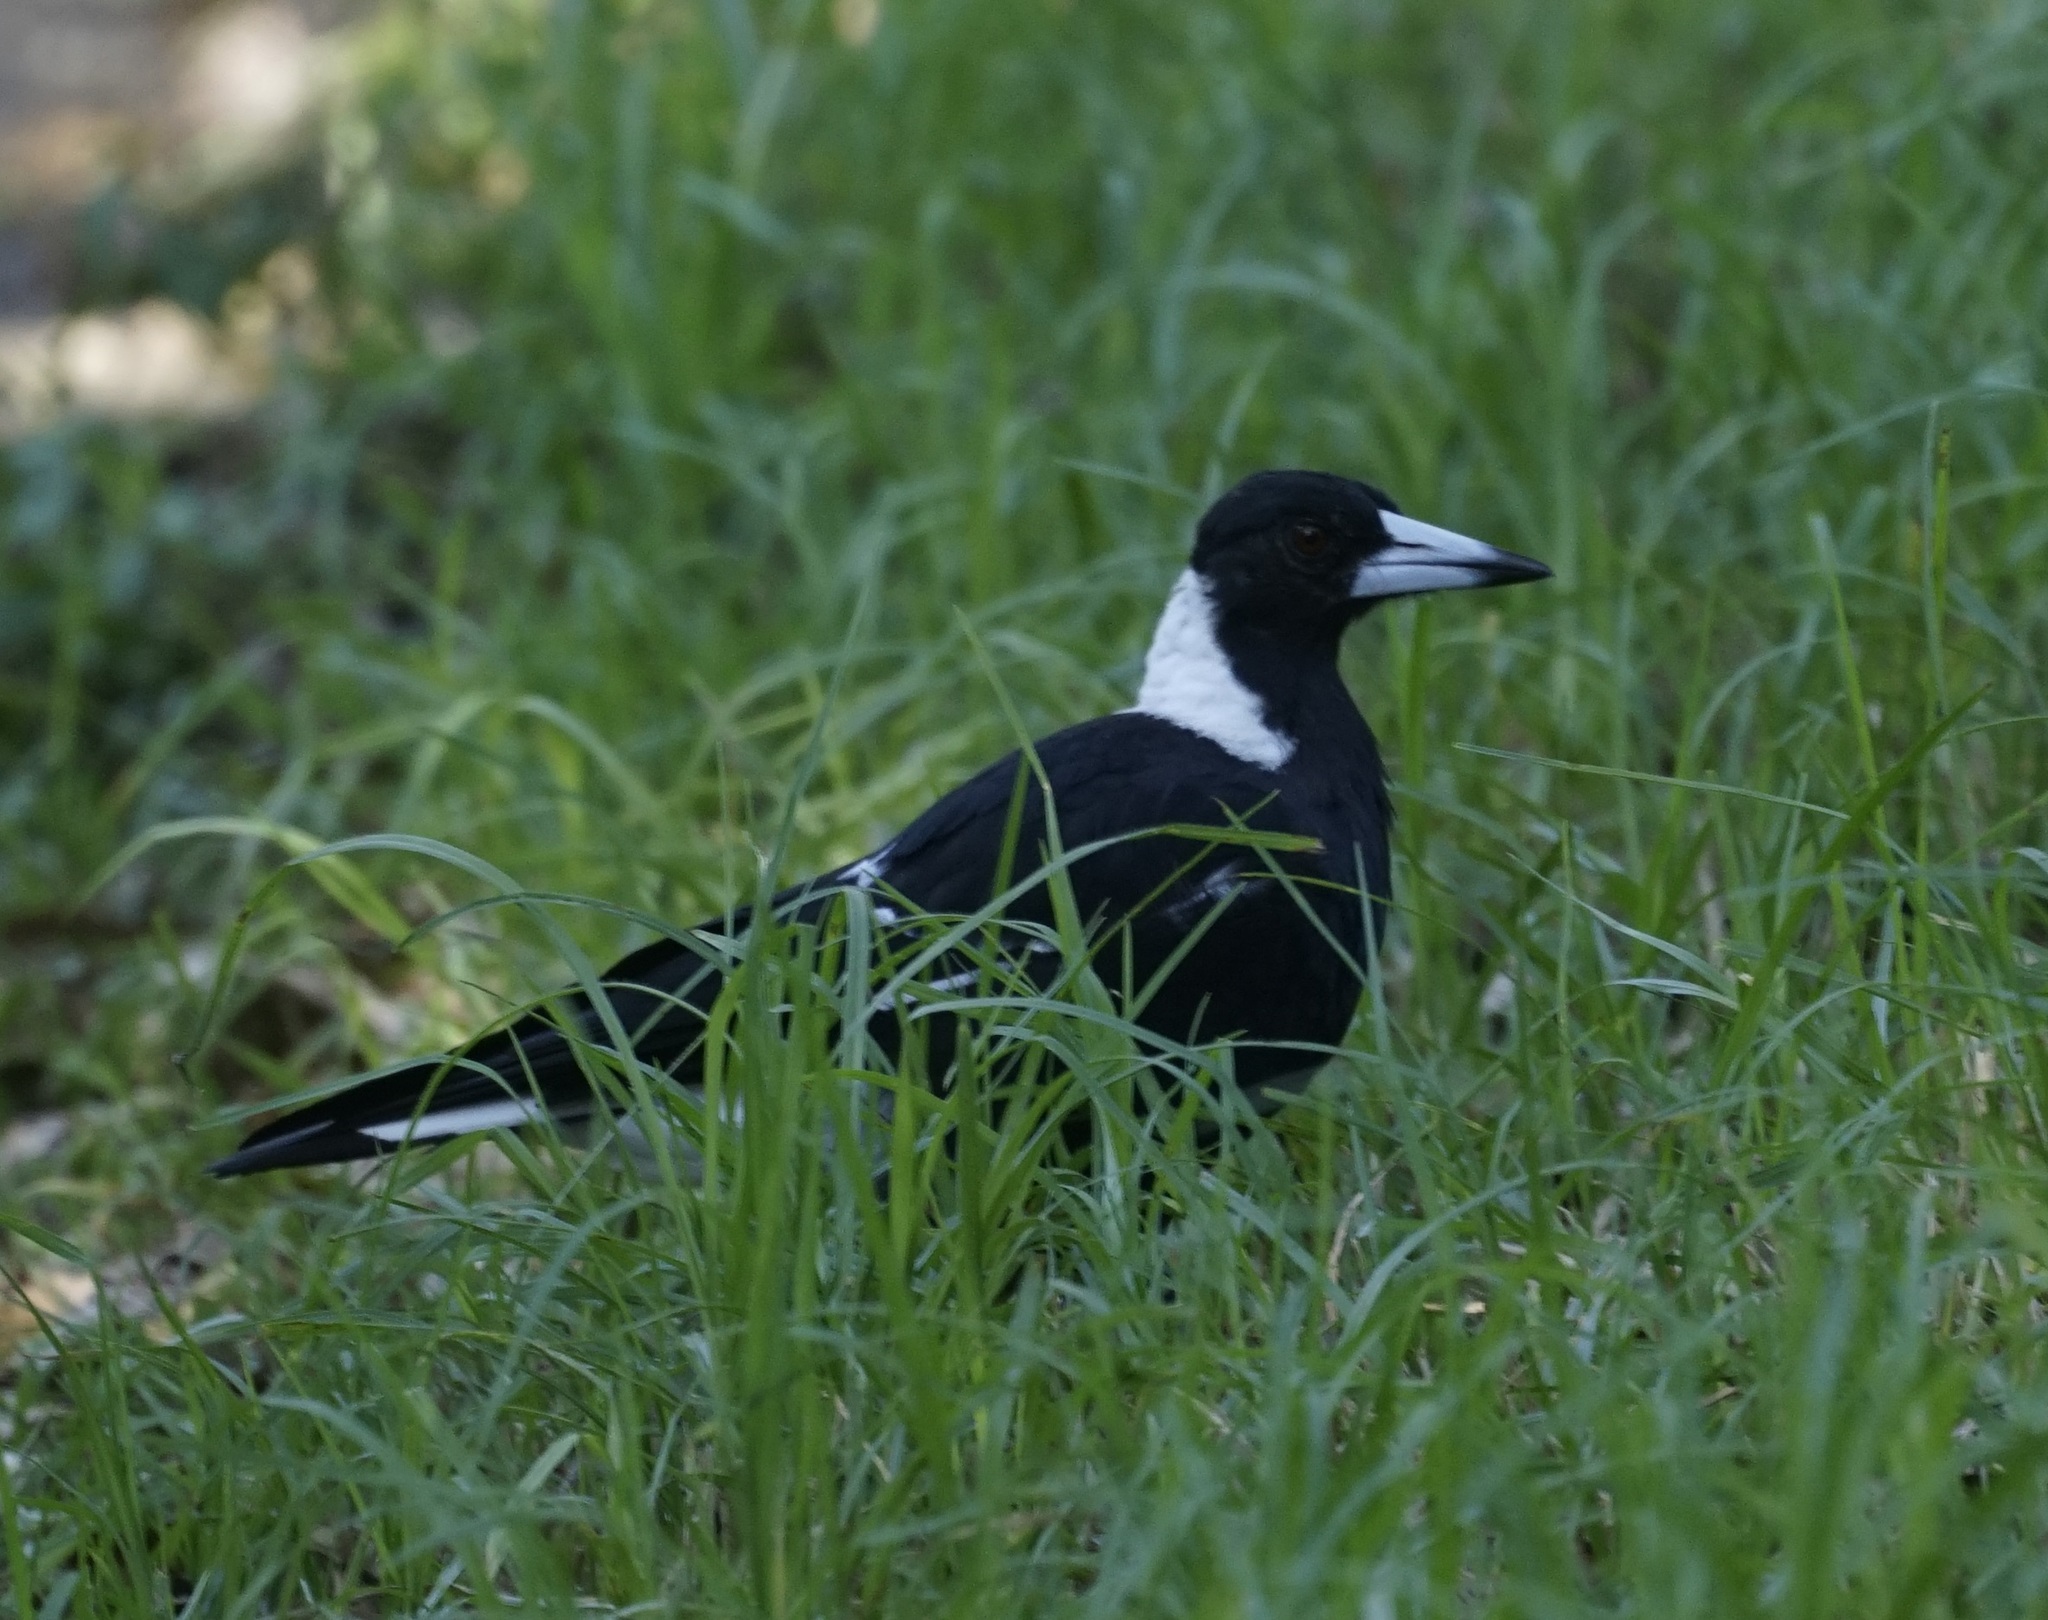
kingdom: Animalia
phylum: Chordata
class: Aves
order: Passeriformes
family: Cracticidae
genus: Gymnorhina
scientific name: Gymnorhina tibicen
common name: Australian magpie
